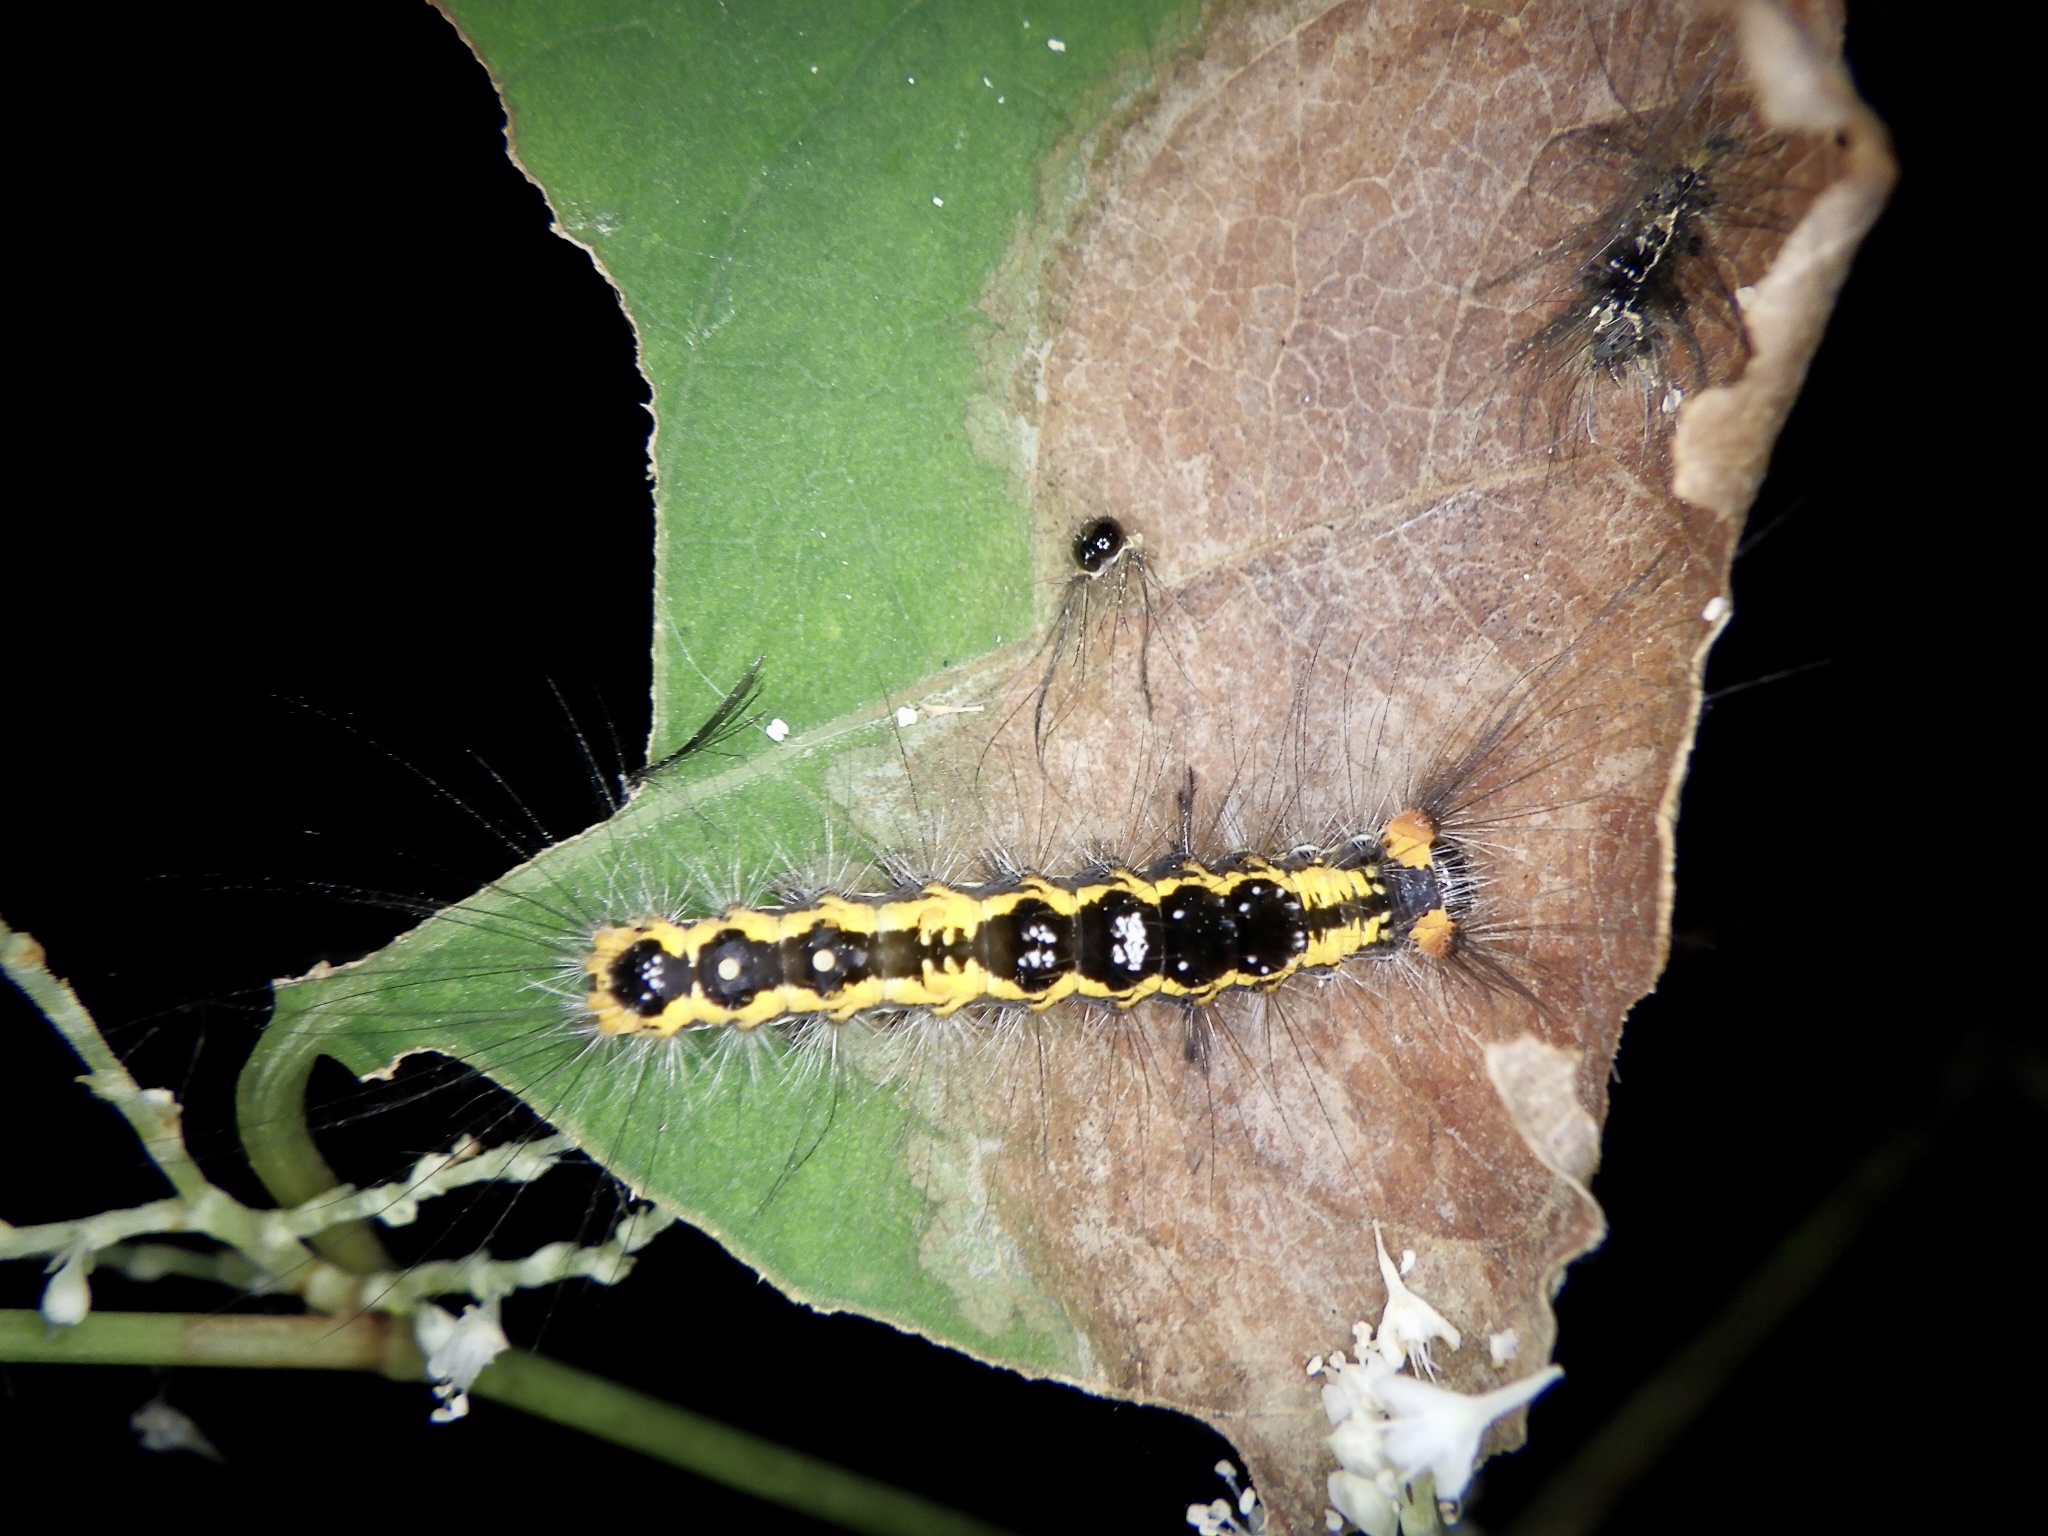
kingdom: Animalia
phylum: Arthropoda
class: Insecta
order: Lepidoptera
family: Erebidae
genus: Orgyia
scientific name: Orgyia thyellina
